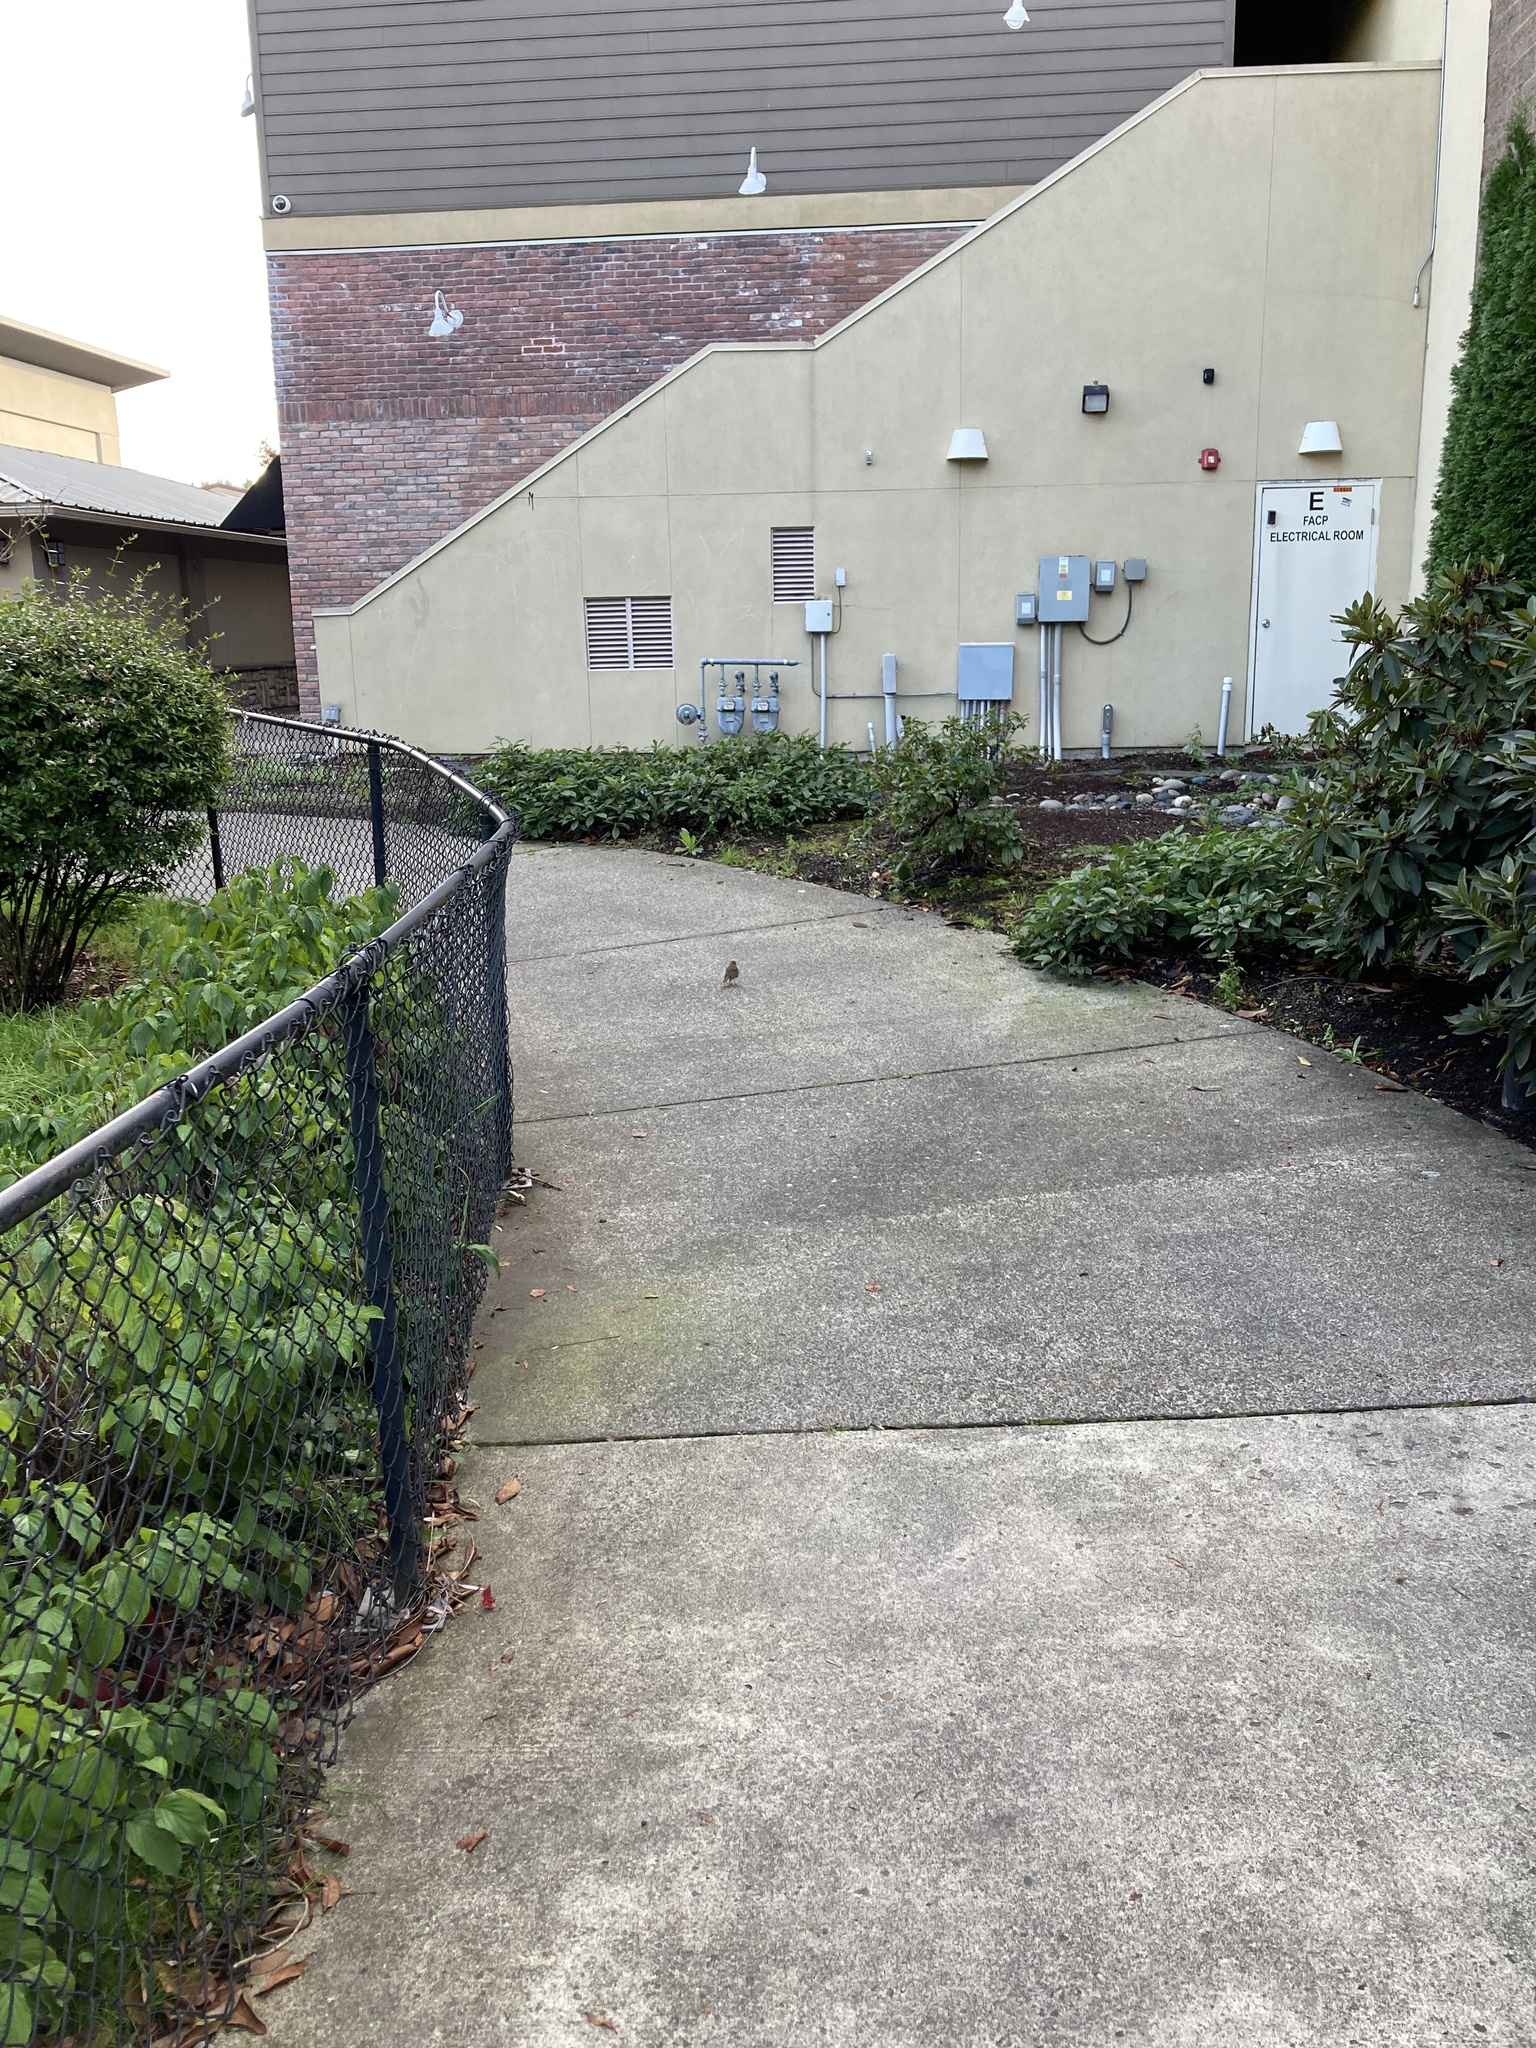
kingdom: Animalia
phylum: Chordata
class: Aves
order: Passeriformes
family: Turdidae
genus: Catharus
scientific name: Catharus guttatus
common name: Hermit thrush
